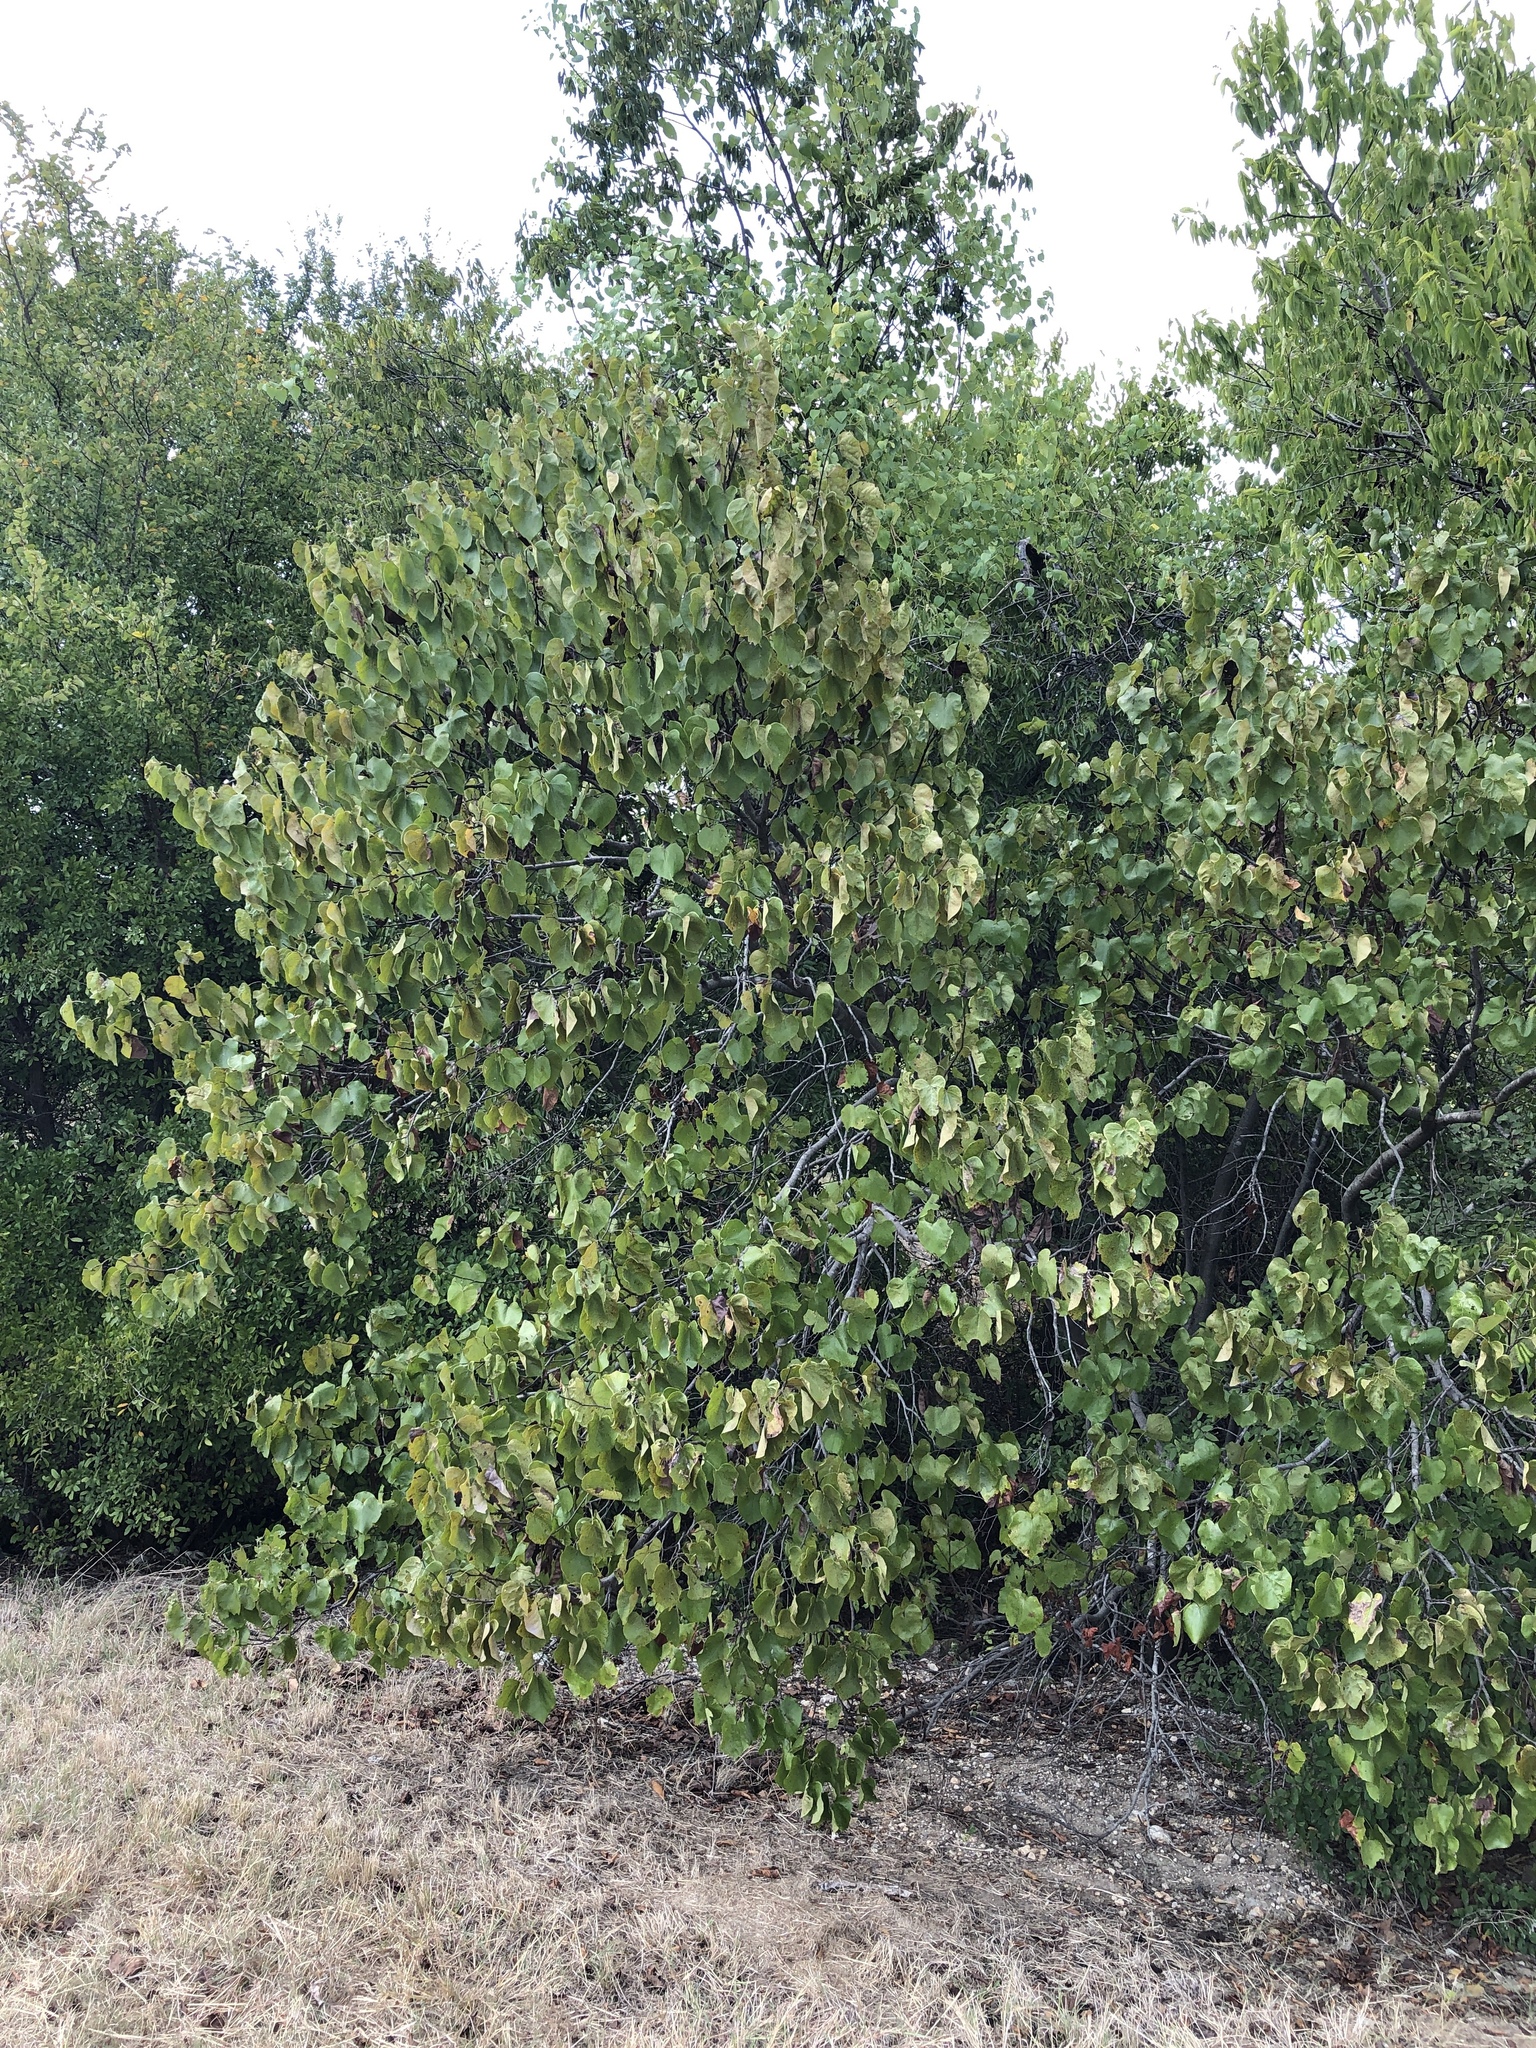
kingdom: Plantae
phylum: Tracheophyta
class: Magnoliopsida
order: Fabales
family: Fabaceae
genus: Cercis
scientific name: Cercis canadensis
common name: Eastern redbud
